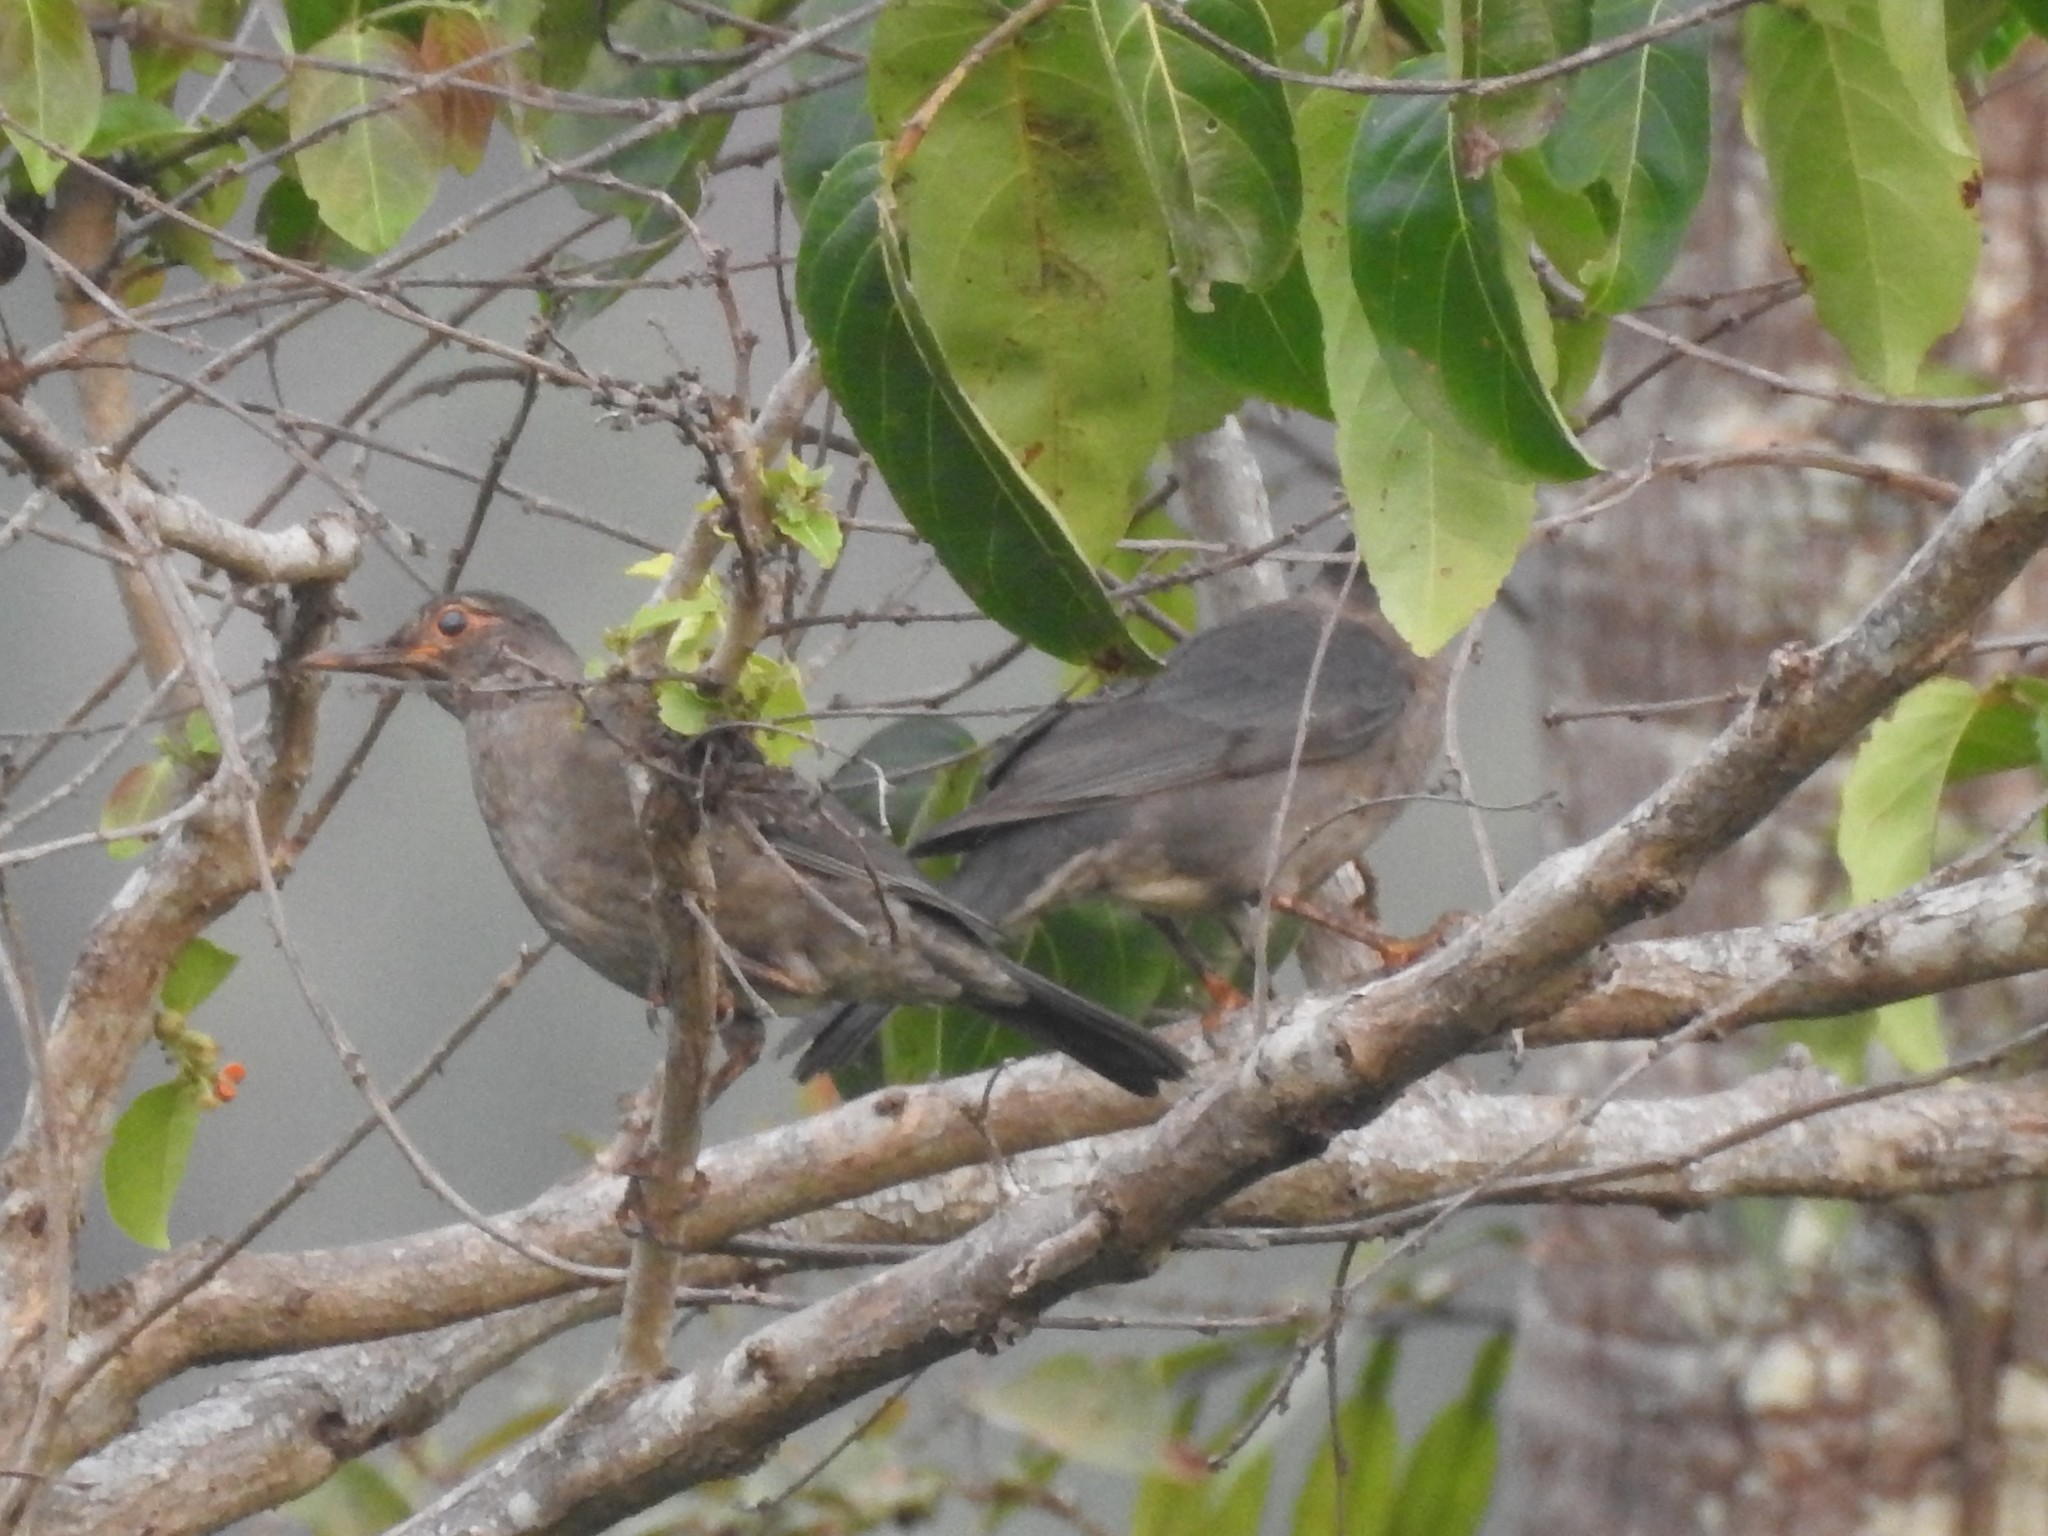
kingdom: Animalia
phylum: Chordata
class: Aves
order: Passeriformes
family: Turdidae
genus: Turdus
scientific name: Turdus simillimus
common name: Indian blackbird
